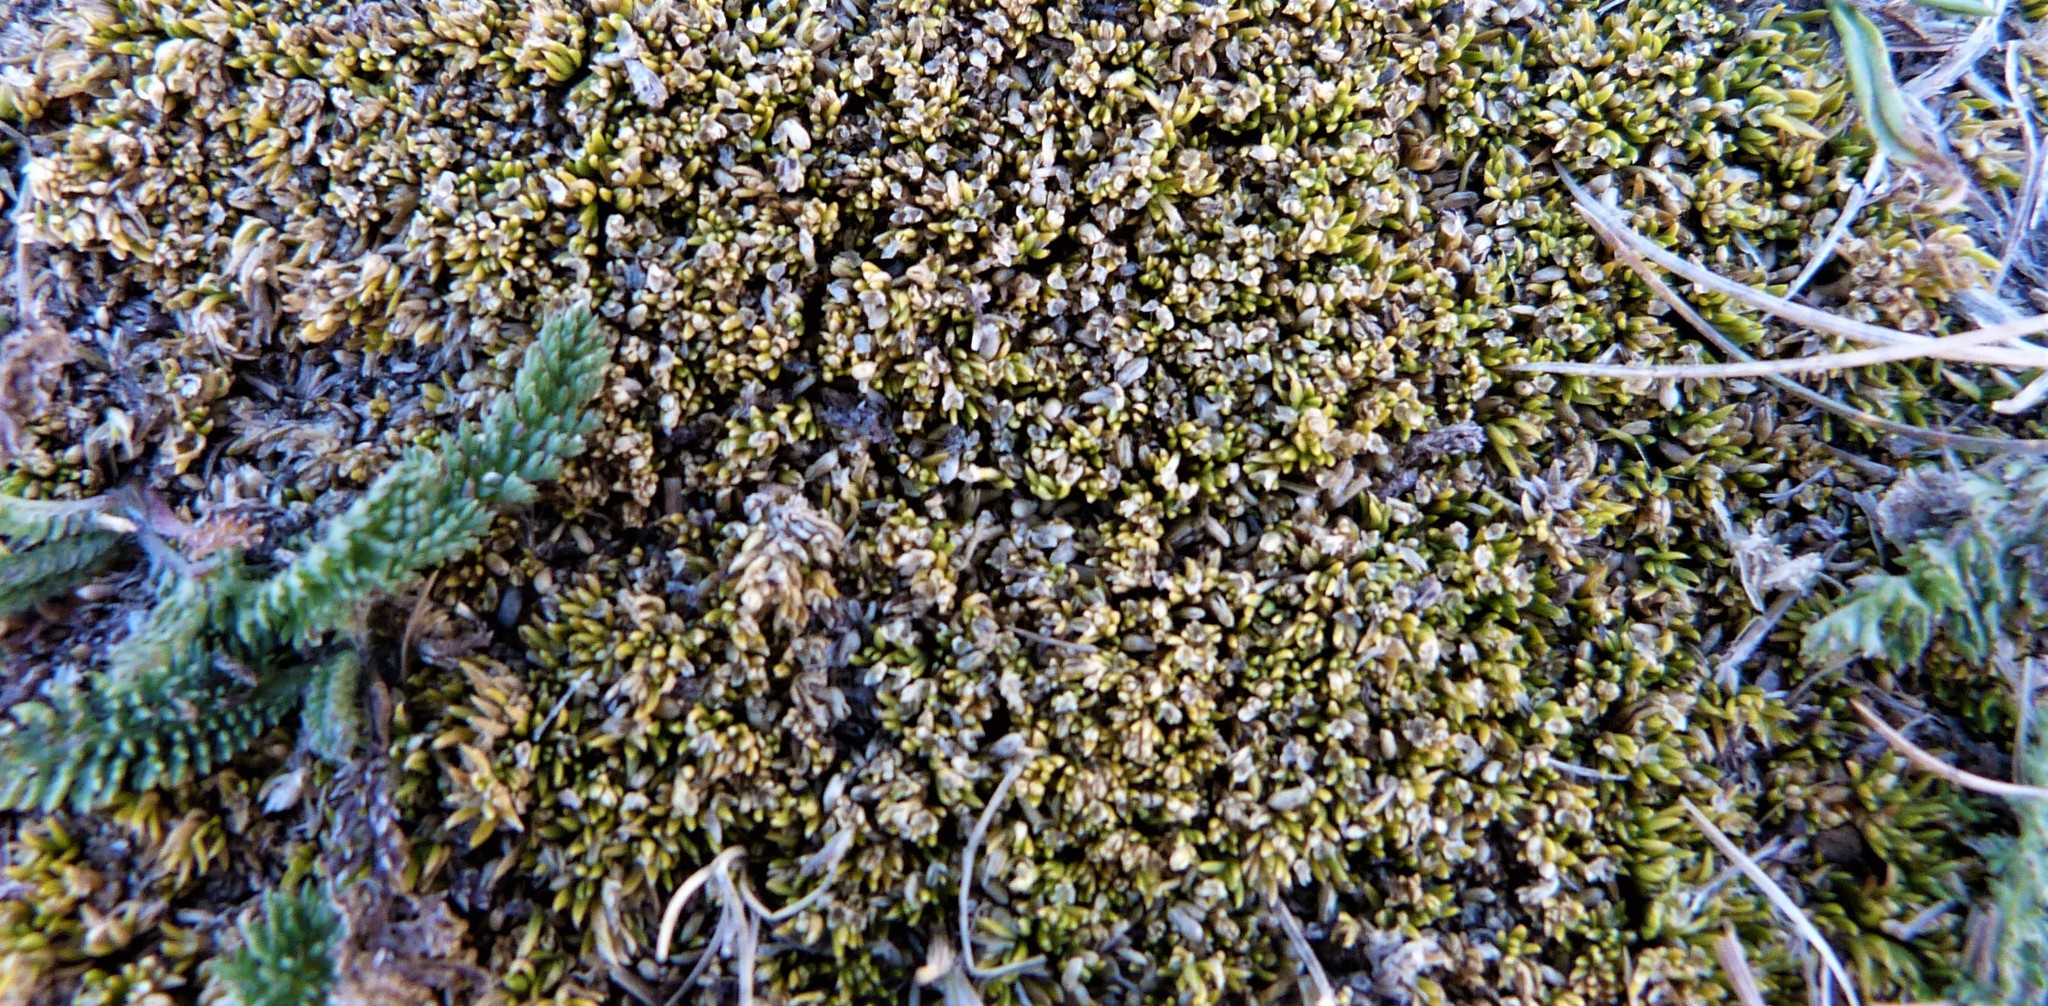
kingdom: Plantae
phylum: Tracheophyta
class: Magnoliopsida
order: Caryophyllales
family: Caryophyllaceae
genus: Scleranthus
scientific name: Scleranthus uniflorus
